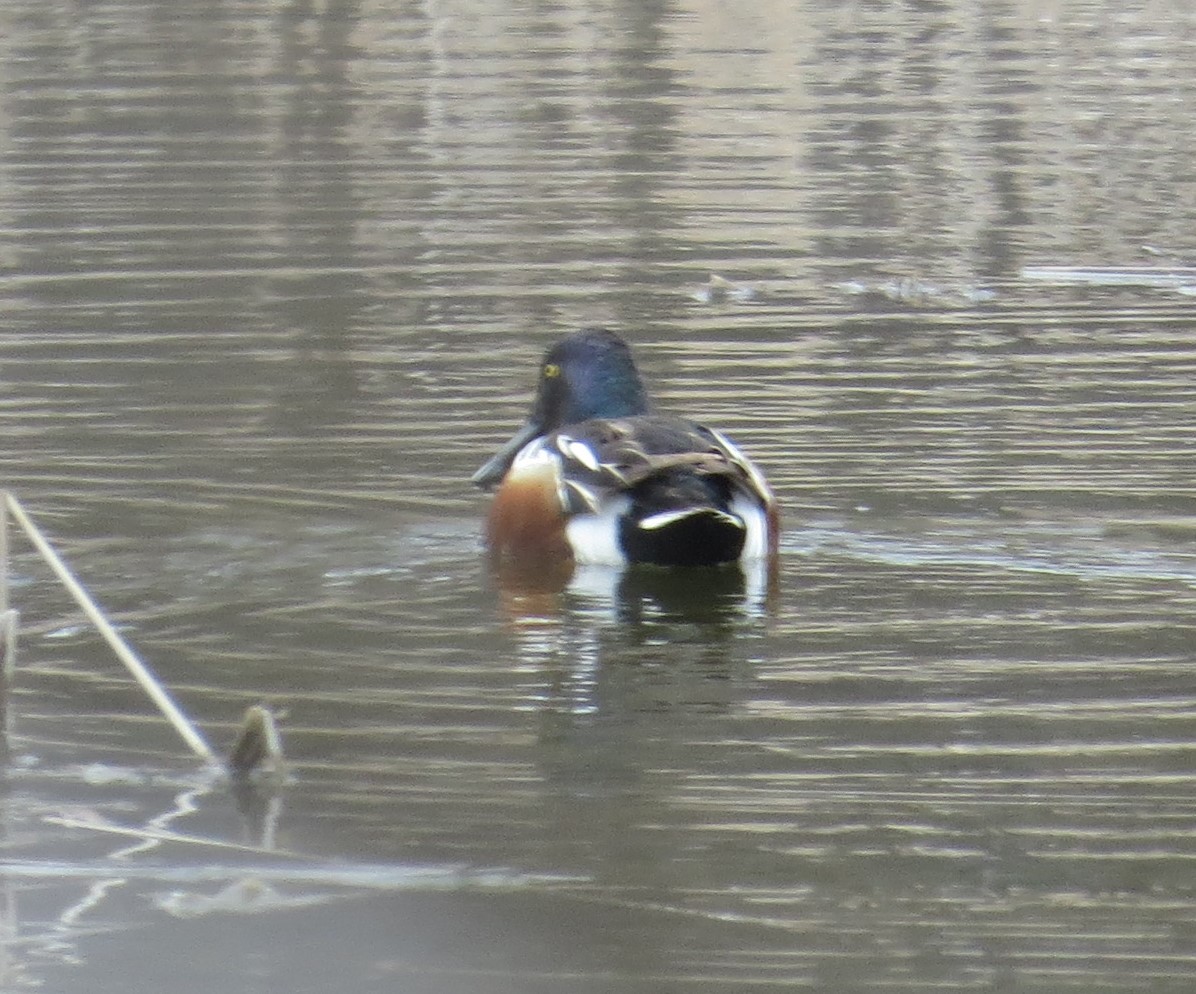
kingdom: Animalia
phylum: Chordata
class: Aves
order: Anseriformes
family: Anatidae
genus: Spatula
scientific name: Spatula clypeata
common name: Northern shoveler
